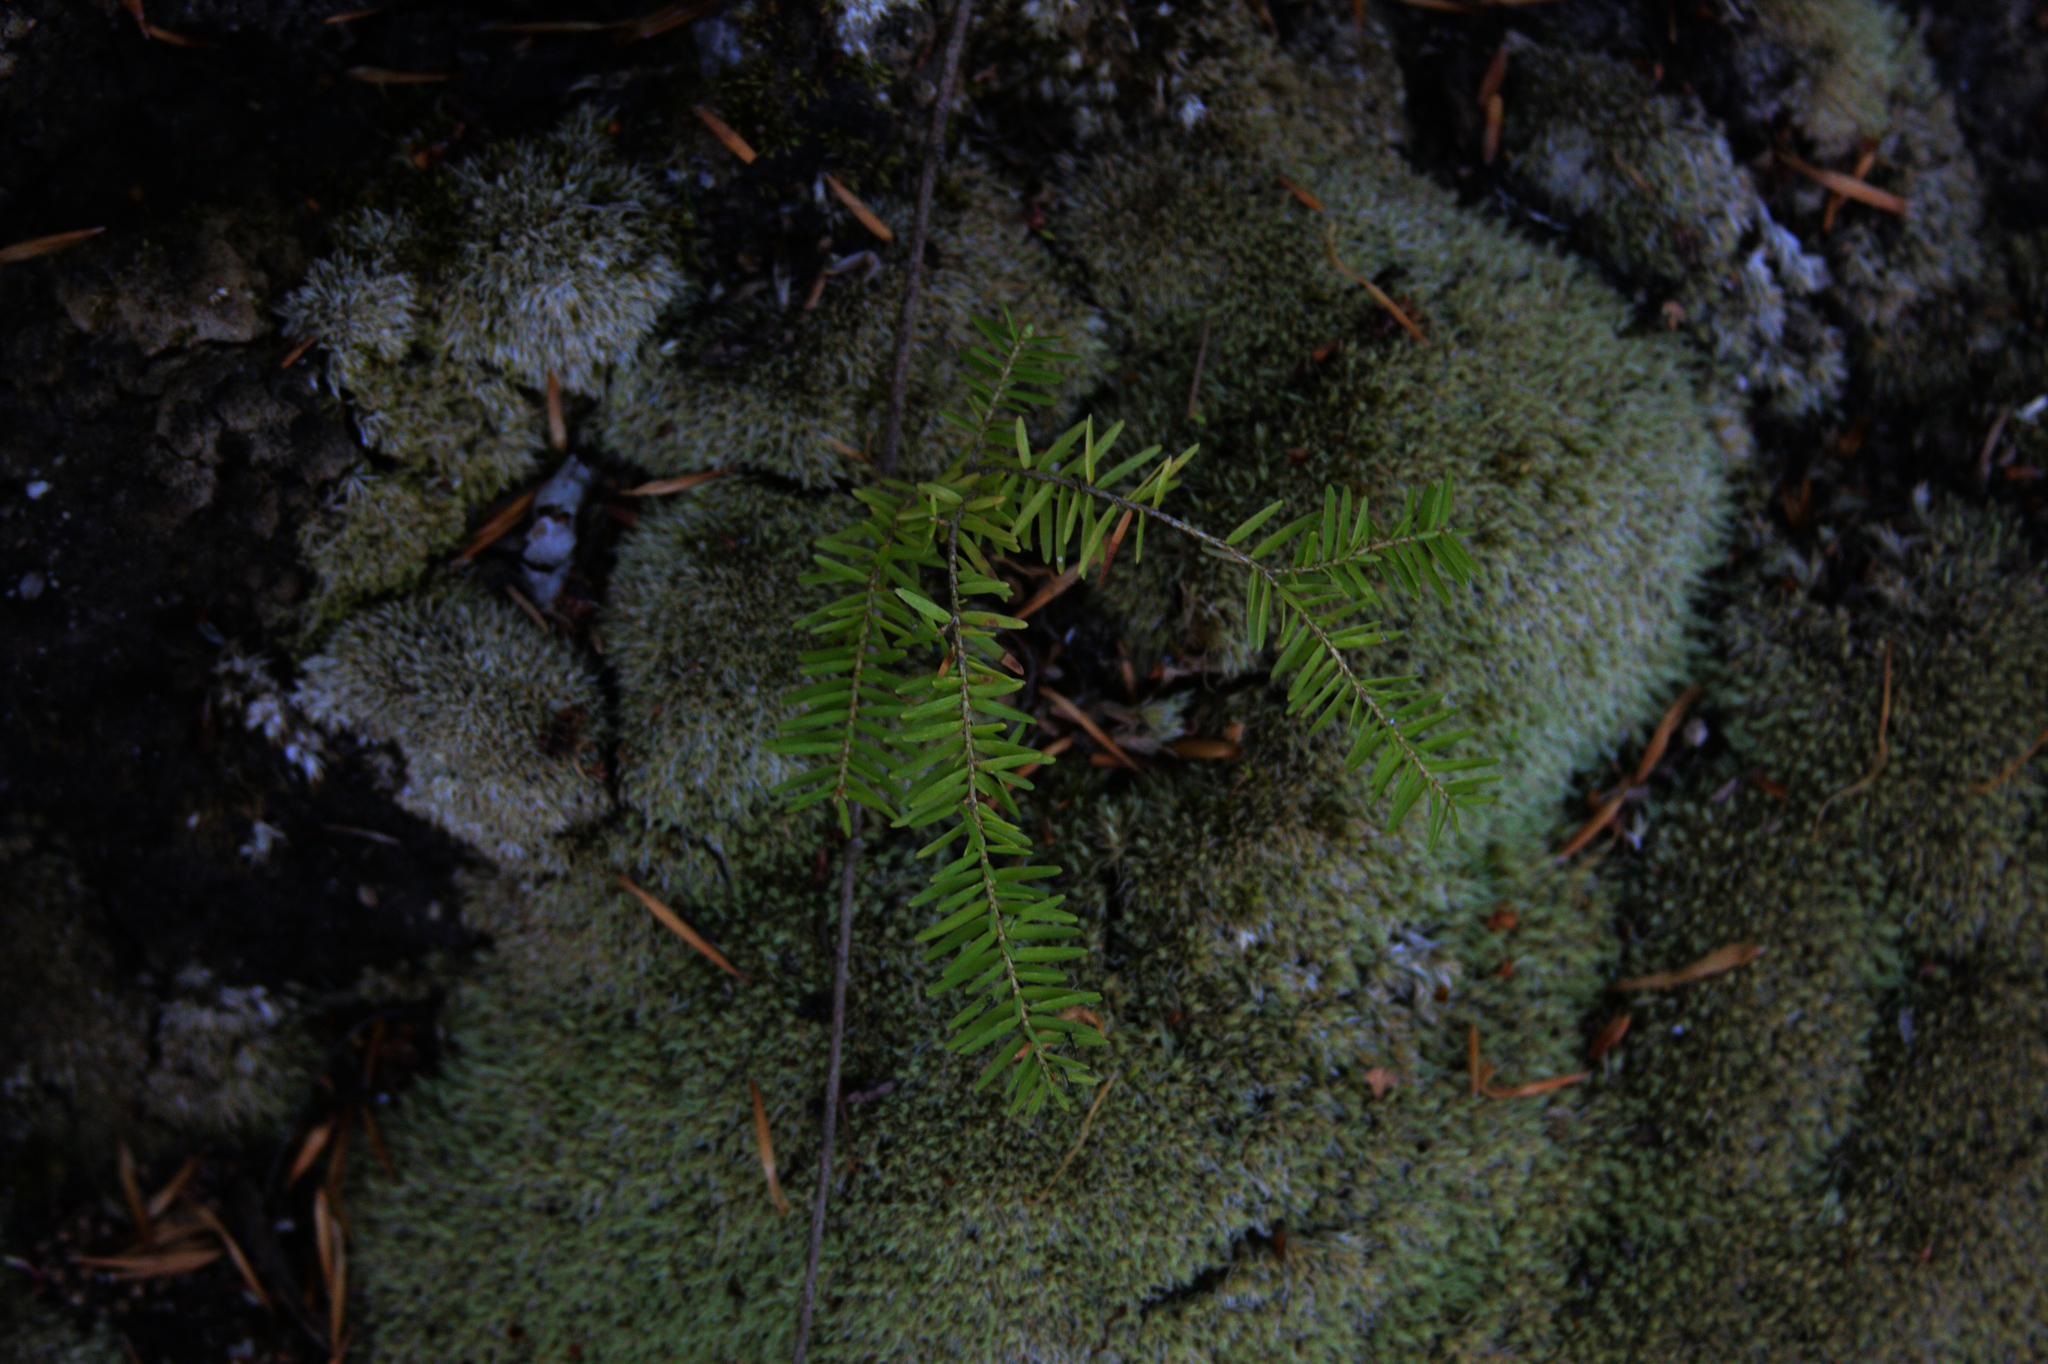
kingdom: Plantae
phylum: Tracheophyta
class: Pinopsida
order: Pinales
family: Pinaceae
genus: Tsuga
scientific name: Tsuga canadensis
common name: Eastern hemlock
